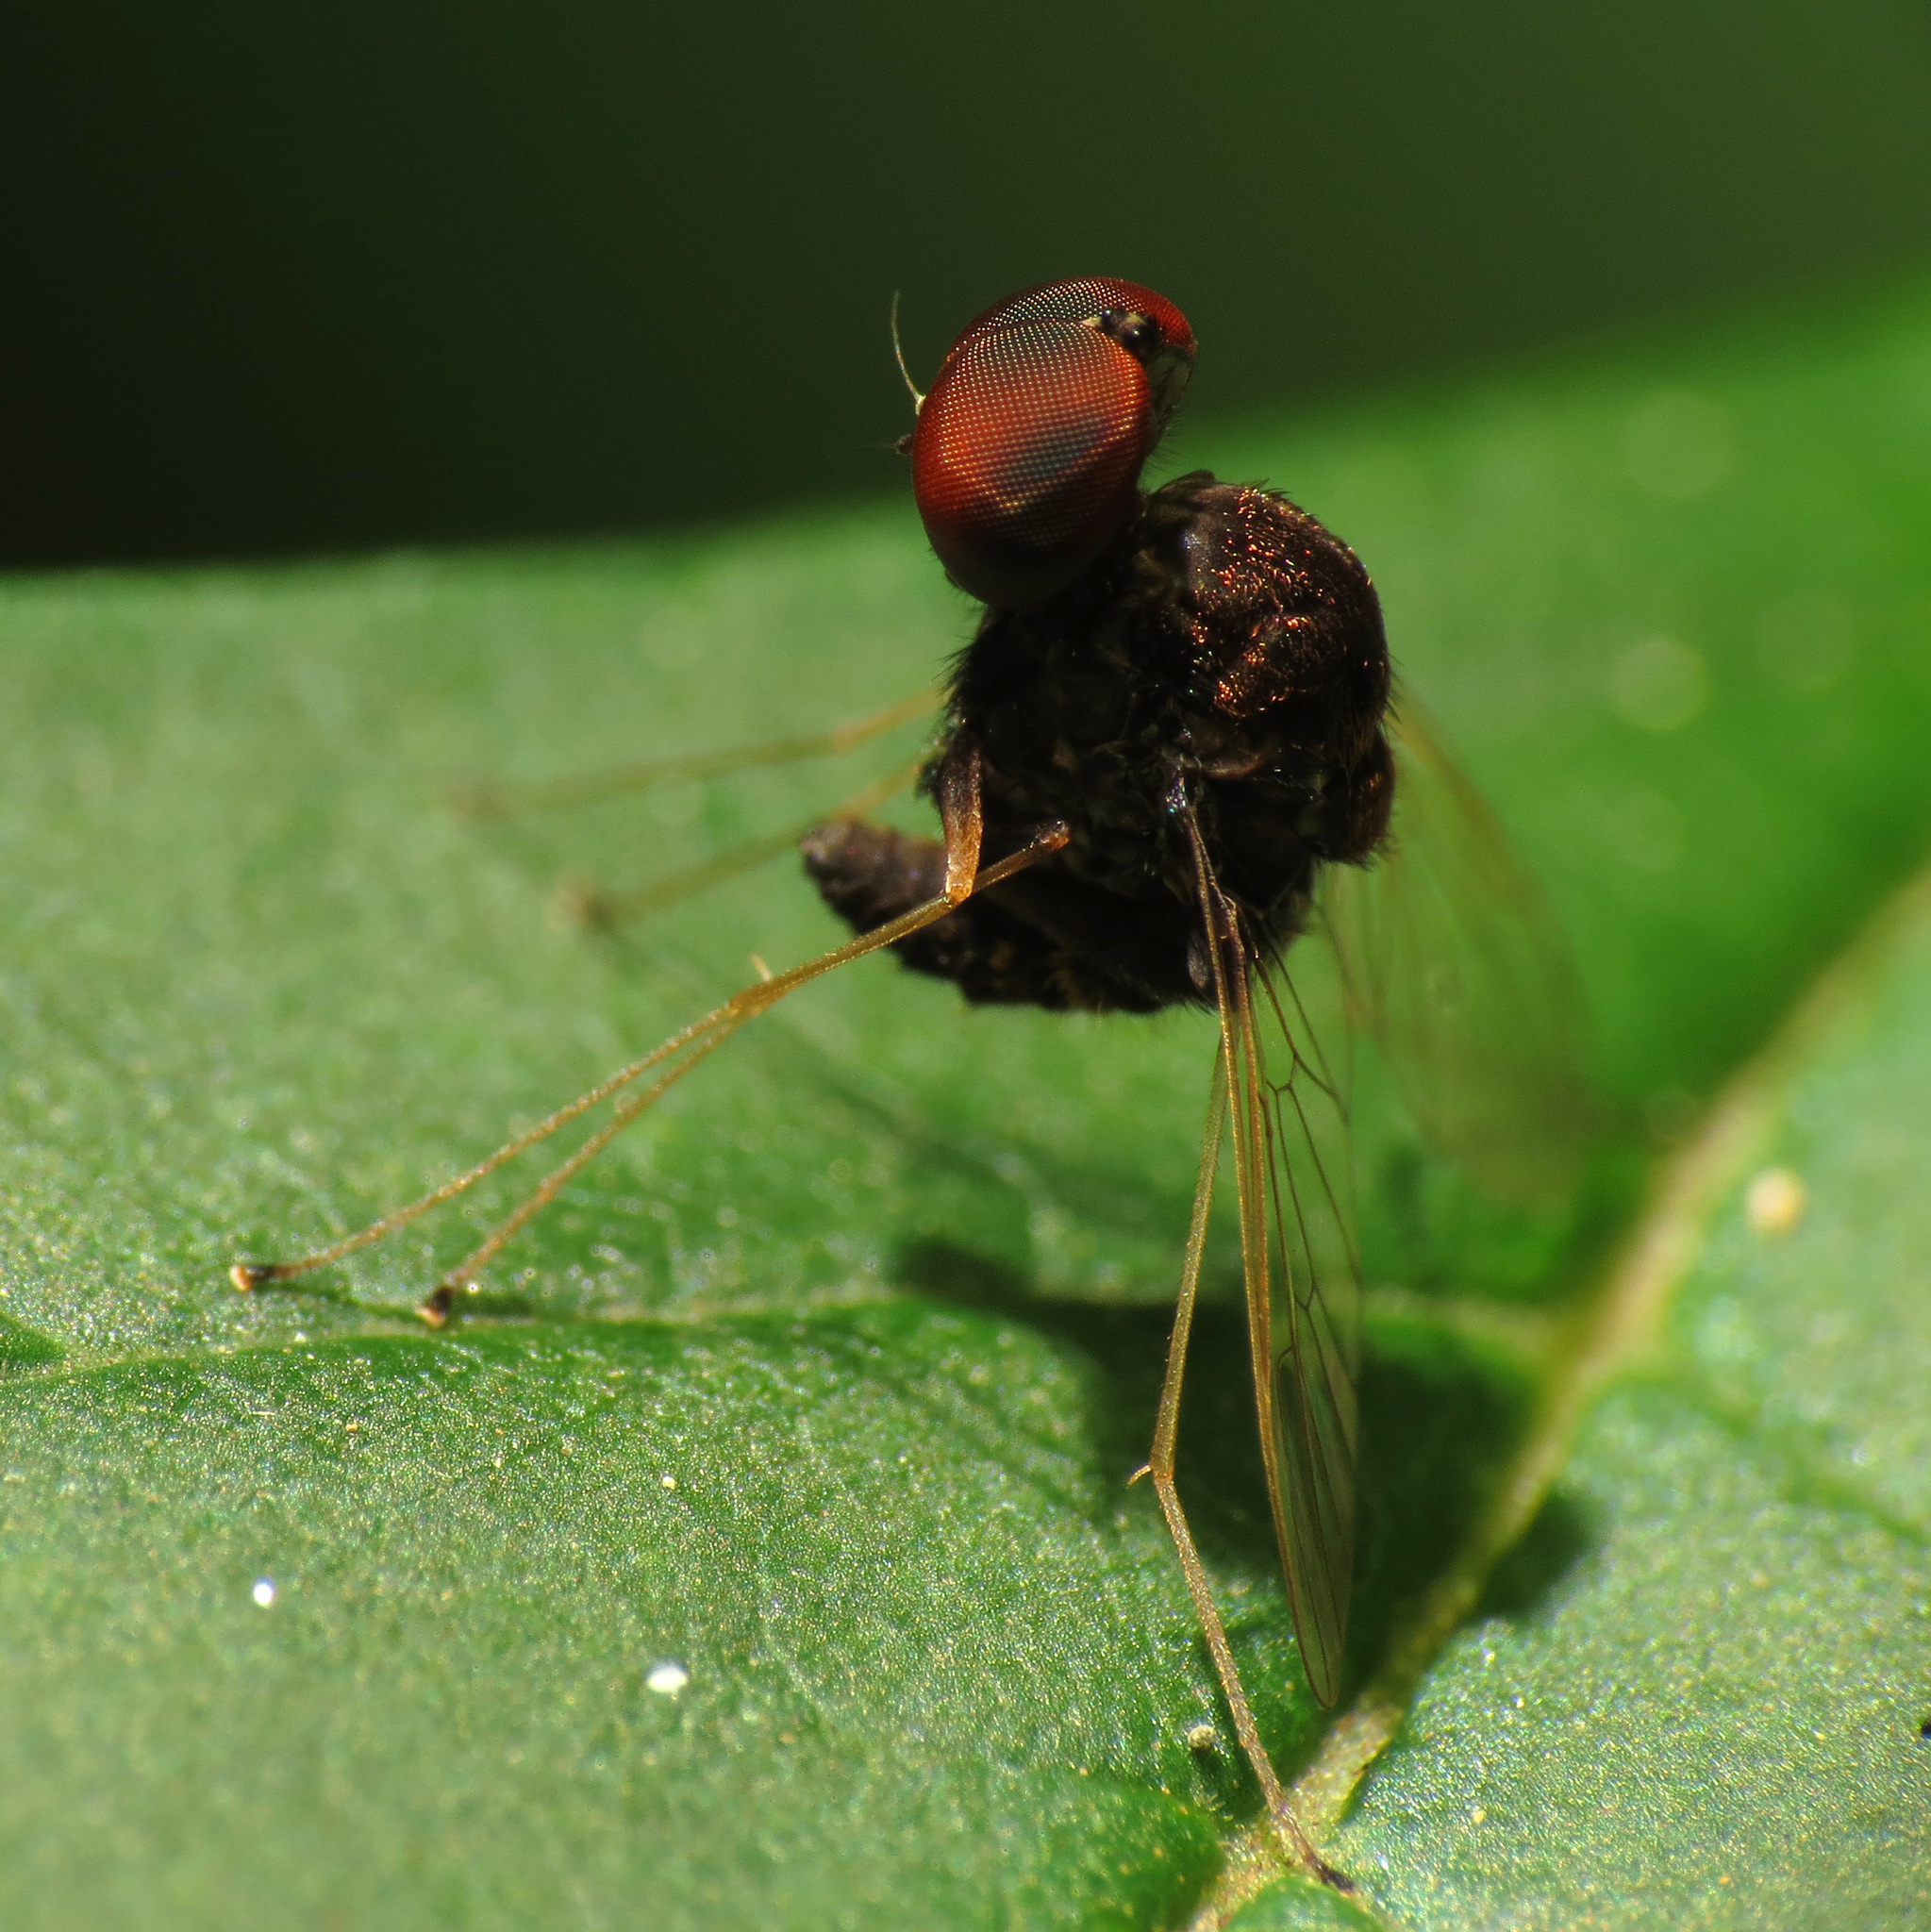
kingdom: Animalia
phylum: Arthropoda
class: Insecta
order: Diptera
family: Rhagionidae
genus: Chrysopilus
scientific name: Chrysopilus basilaris
